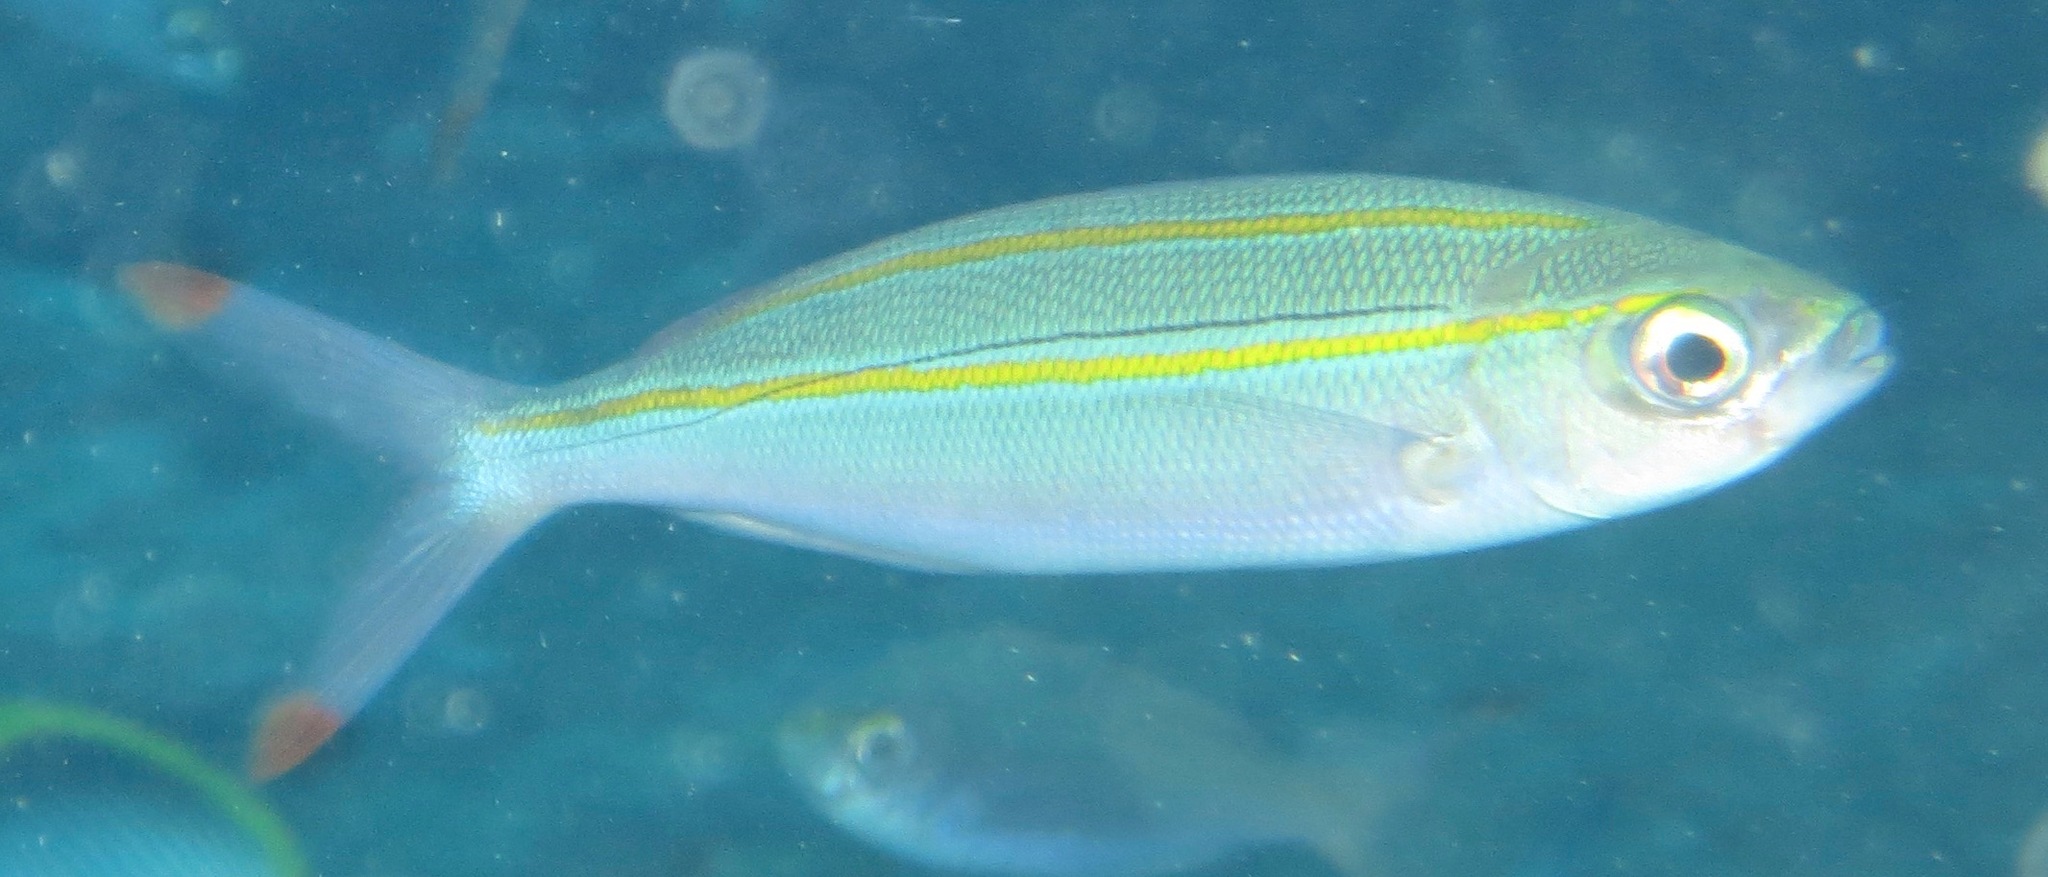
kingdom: Animalia
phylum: Chordata
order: Perciformes
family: Caesionidae
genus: Pterocaesio
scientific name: Pterocaesio digramma
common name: Double-lined fusilier
